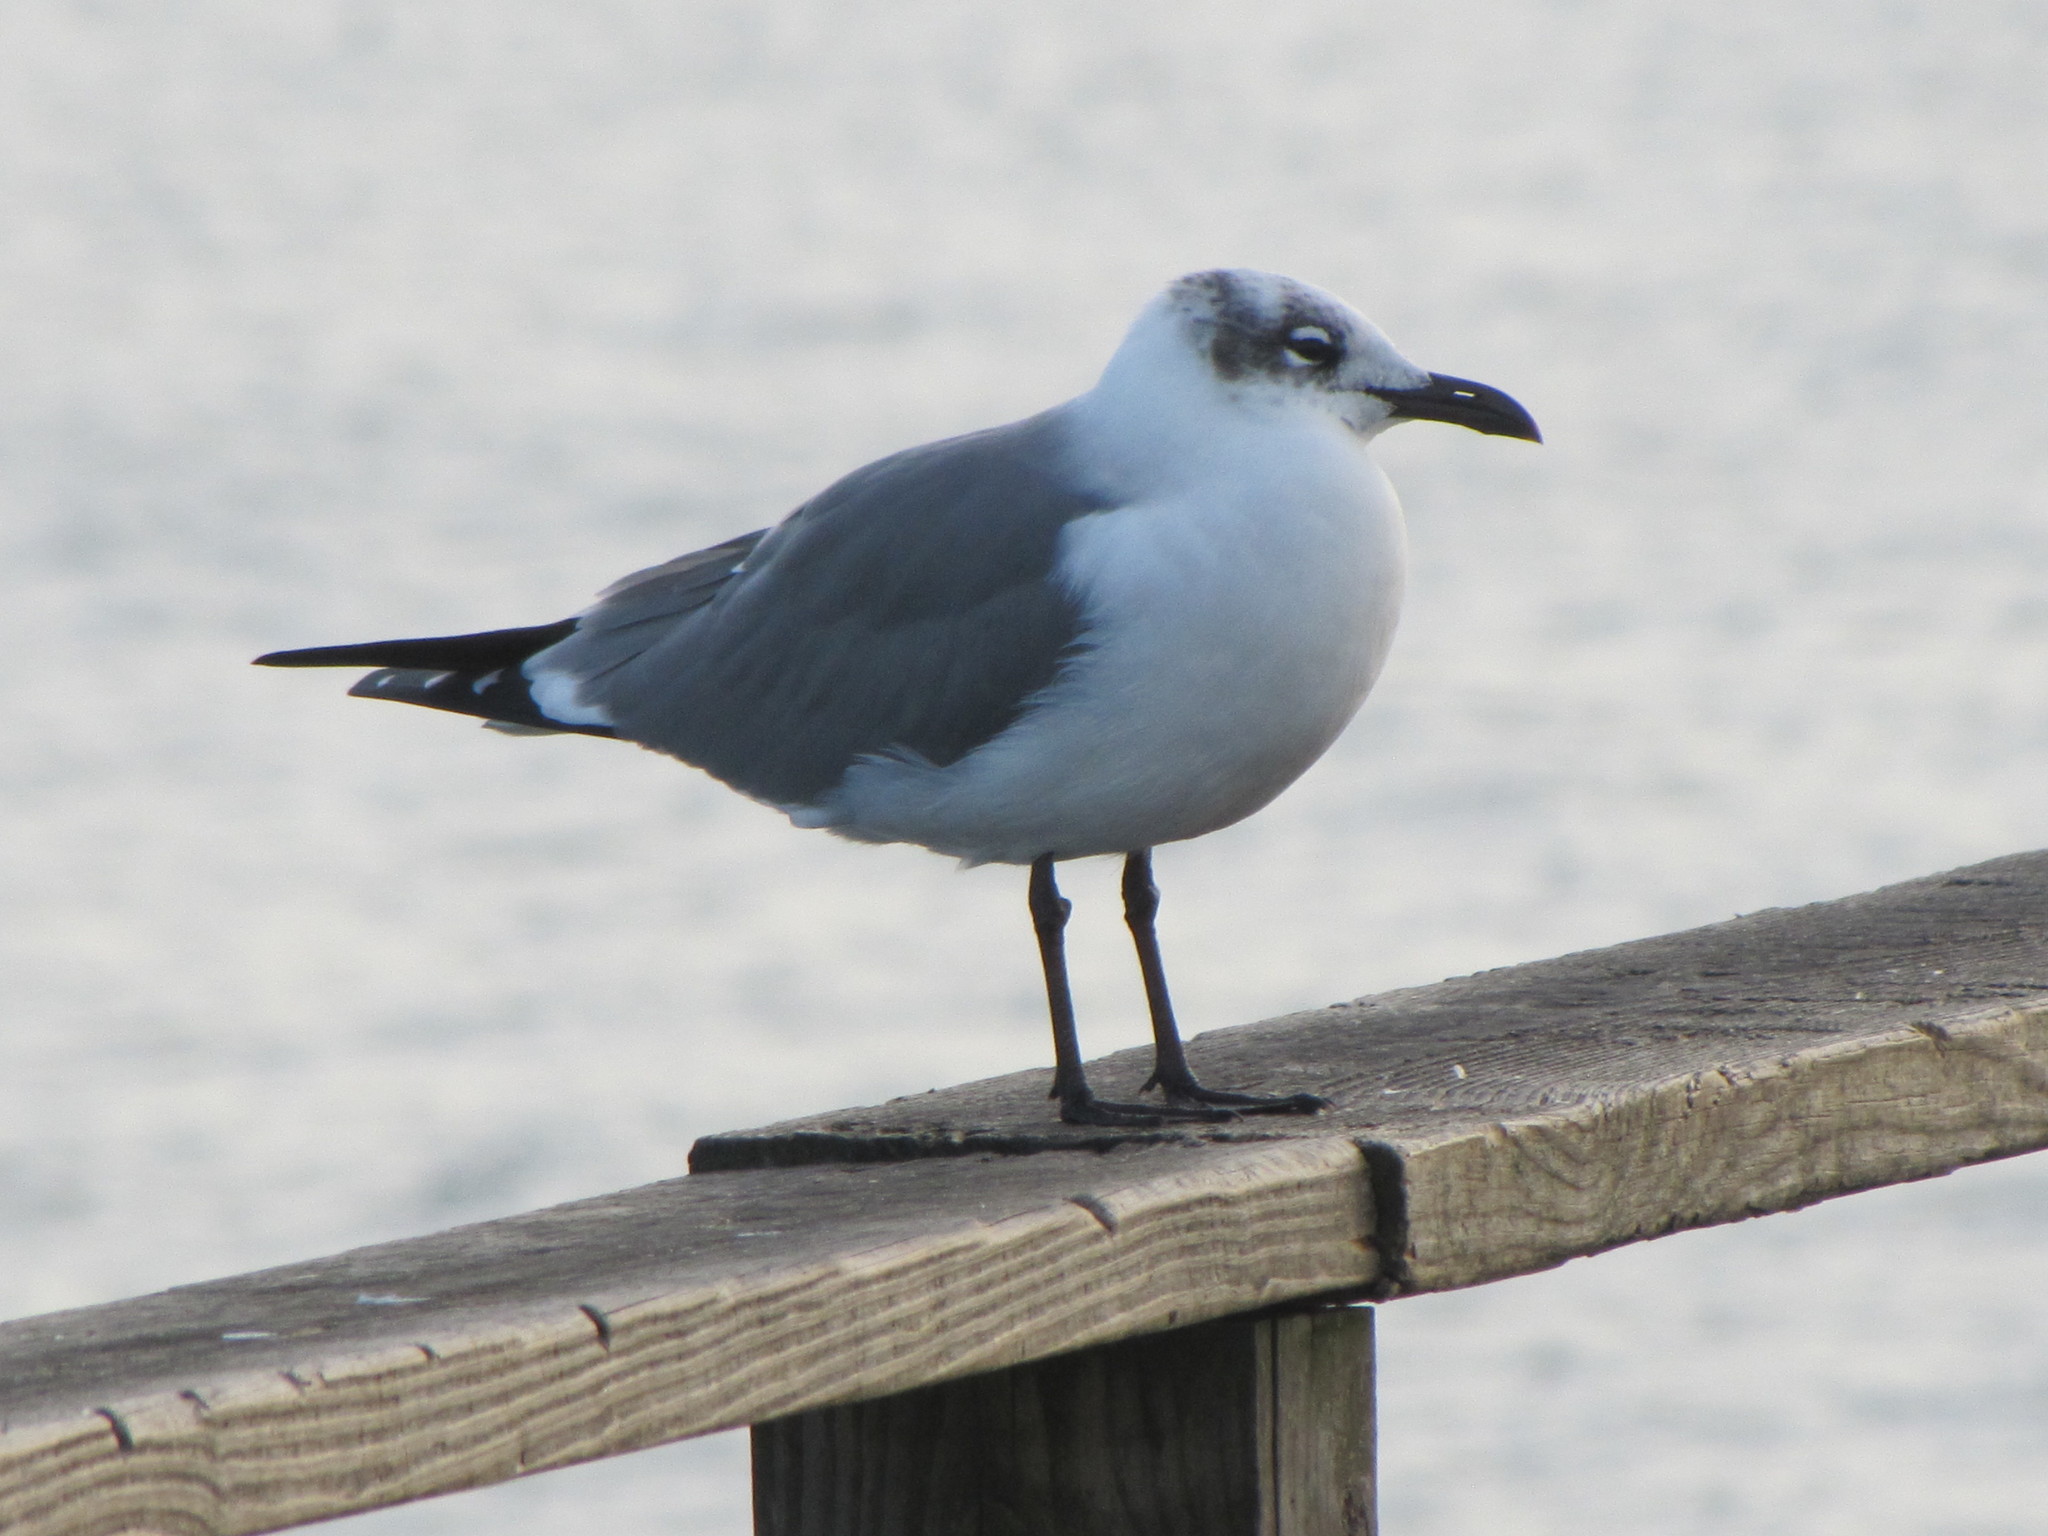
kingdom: Animalia
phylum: Chordata
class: Aves
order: Charadriiformes
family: Laridae
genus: Leucophaeus
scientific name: Leucophaeus atricilla
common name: Laughing gull
